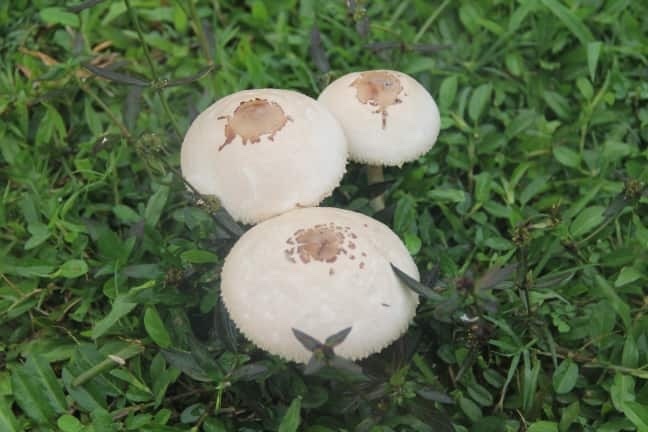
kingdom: Fungi
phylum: Basidiomycota
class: Agaricomycetes
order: Agaricales
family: Agaricaceae
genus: Chlorophyllum
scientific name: Chlorophyllum molybdites
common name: False parasol
